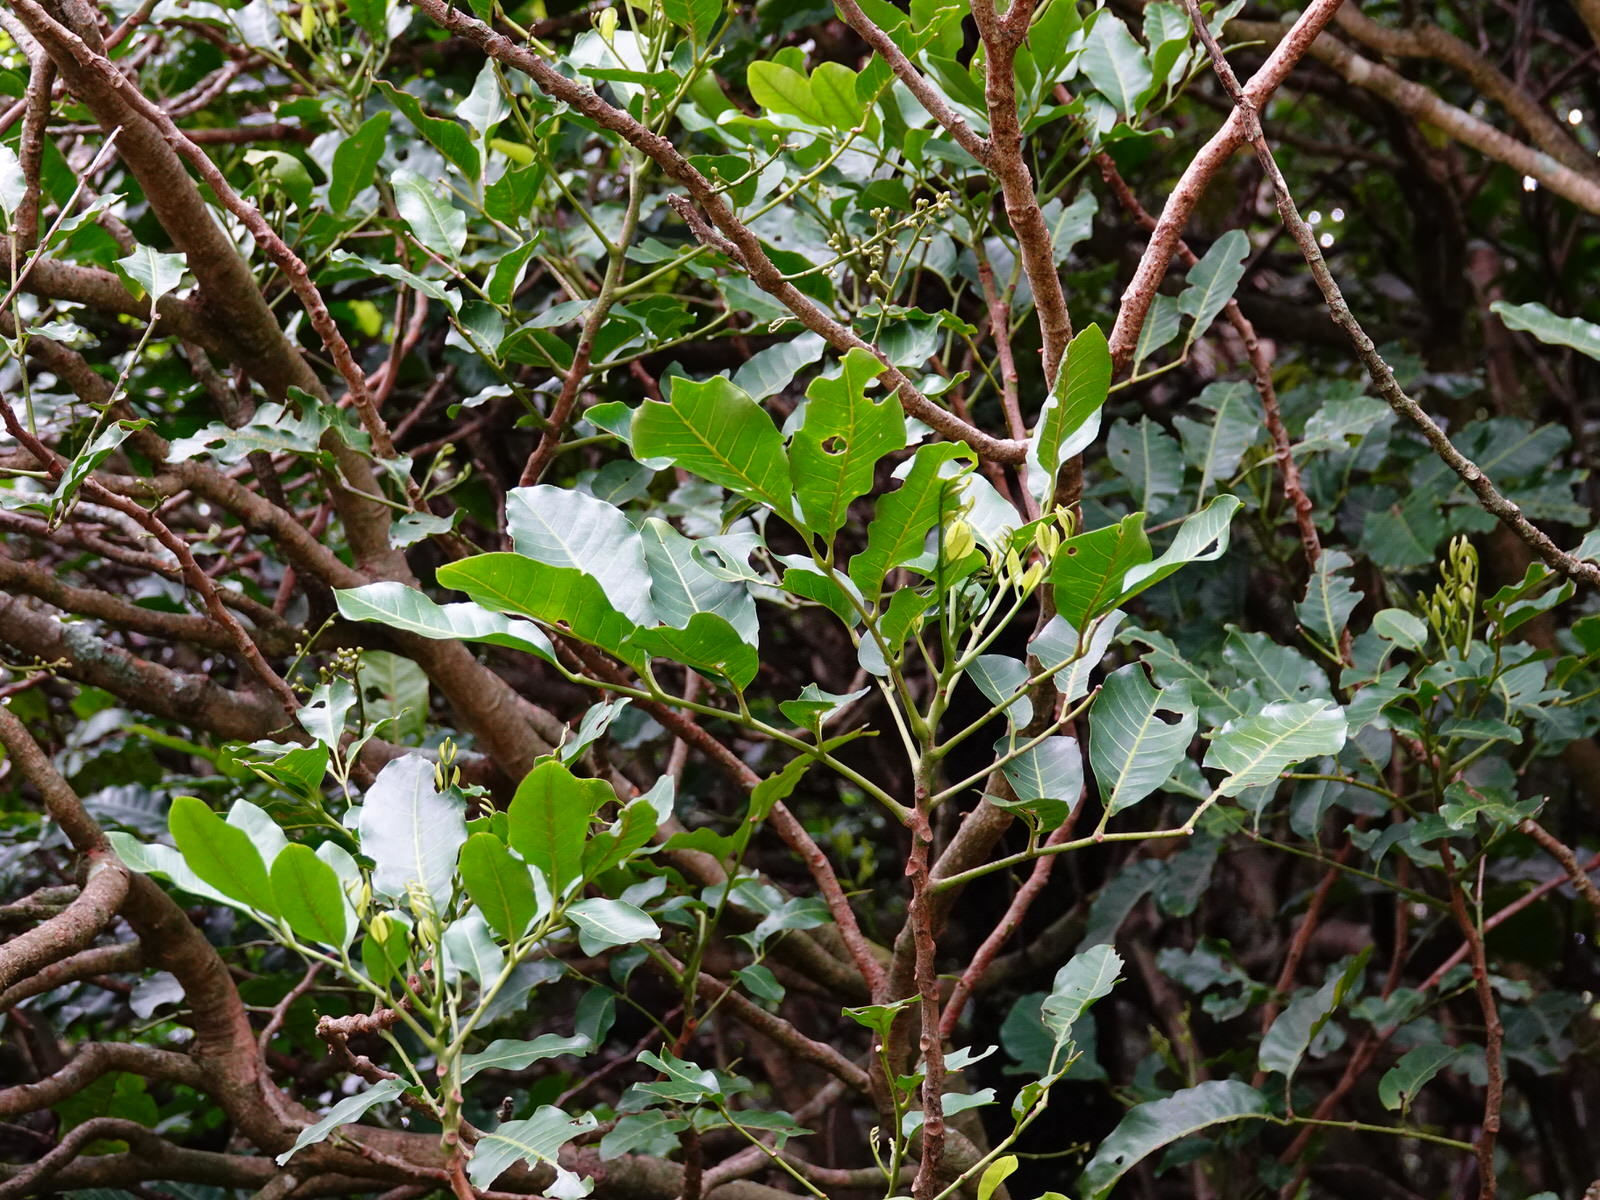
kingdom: Plantae
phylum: Tracheophyta
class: Magnoliopsida
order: Sapindales
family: Meliaceae
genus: Didymocheton
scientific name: Didymocheton spectabilis
